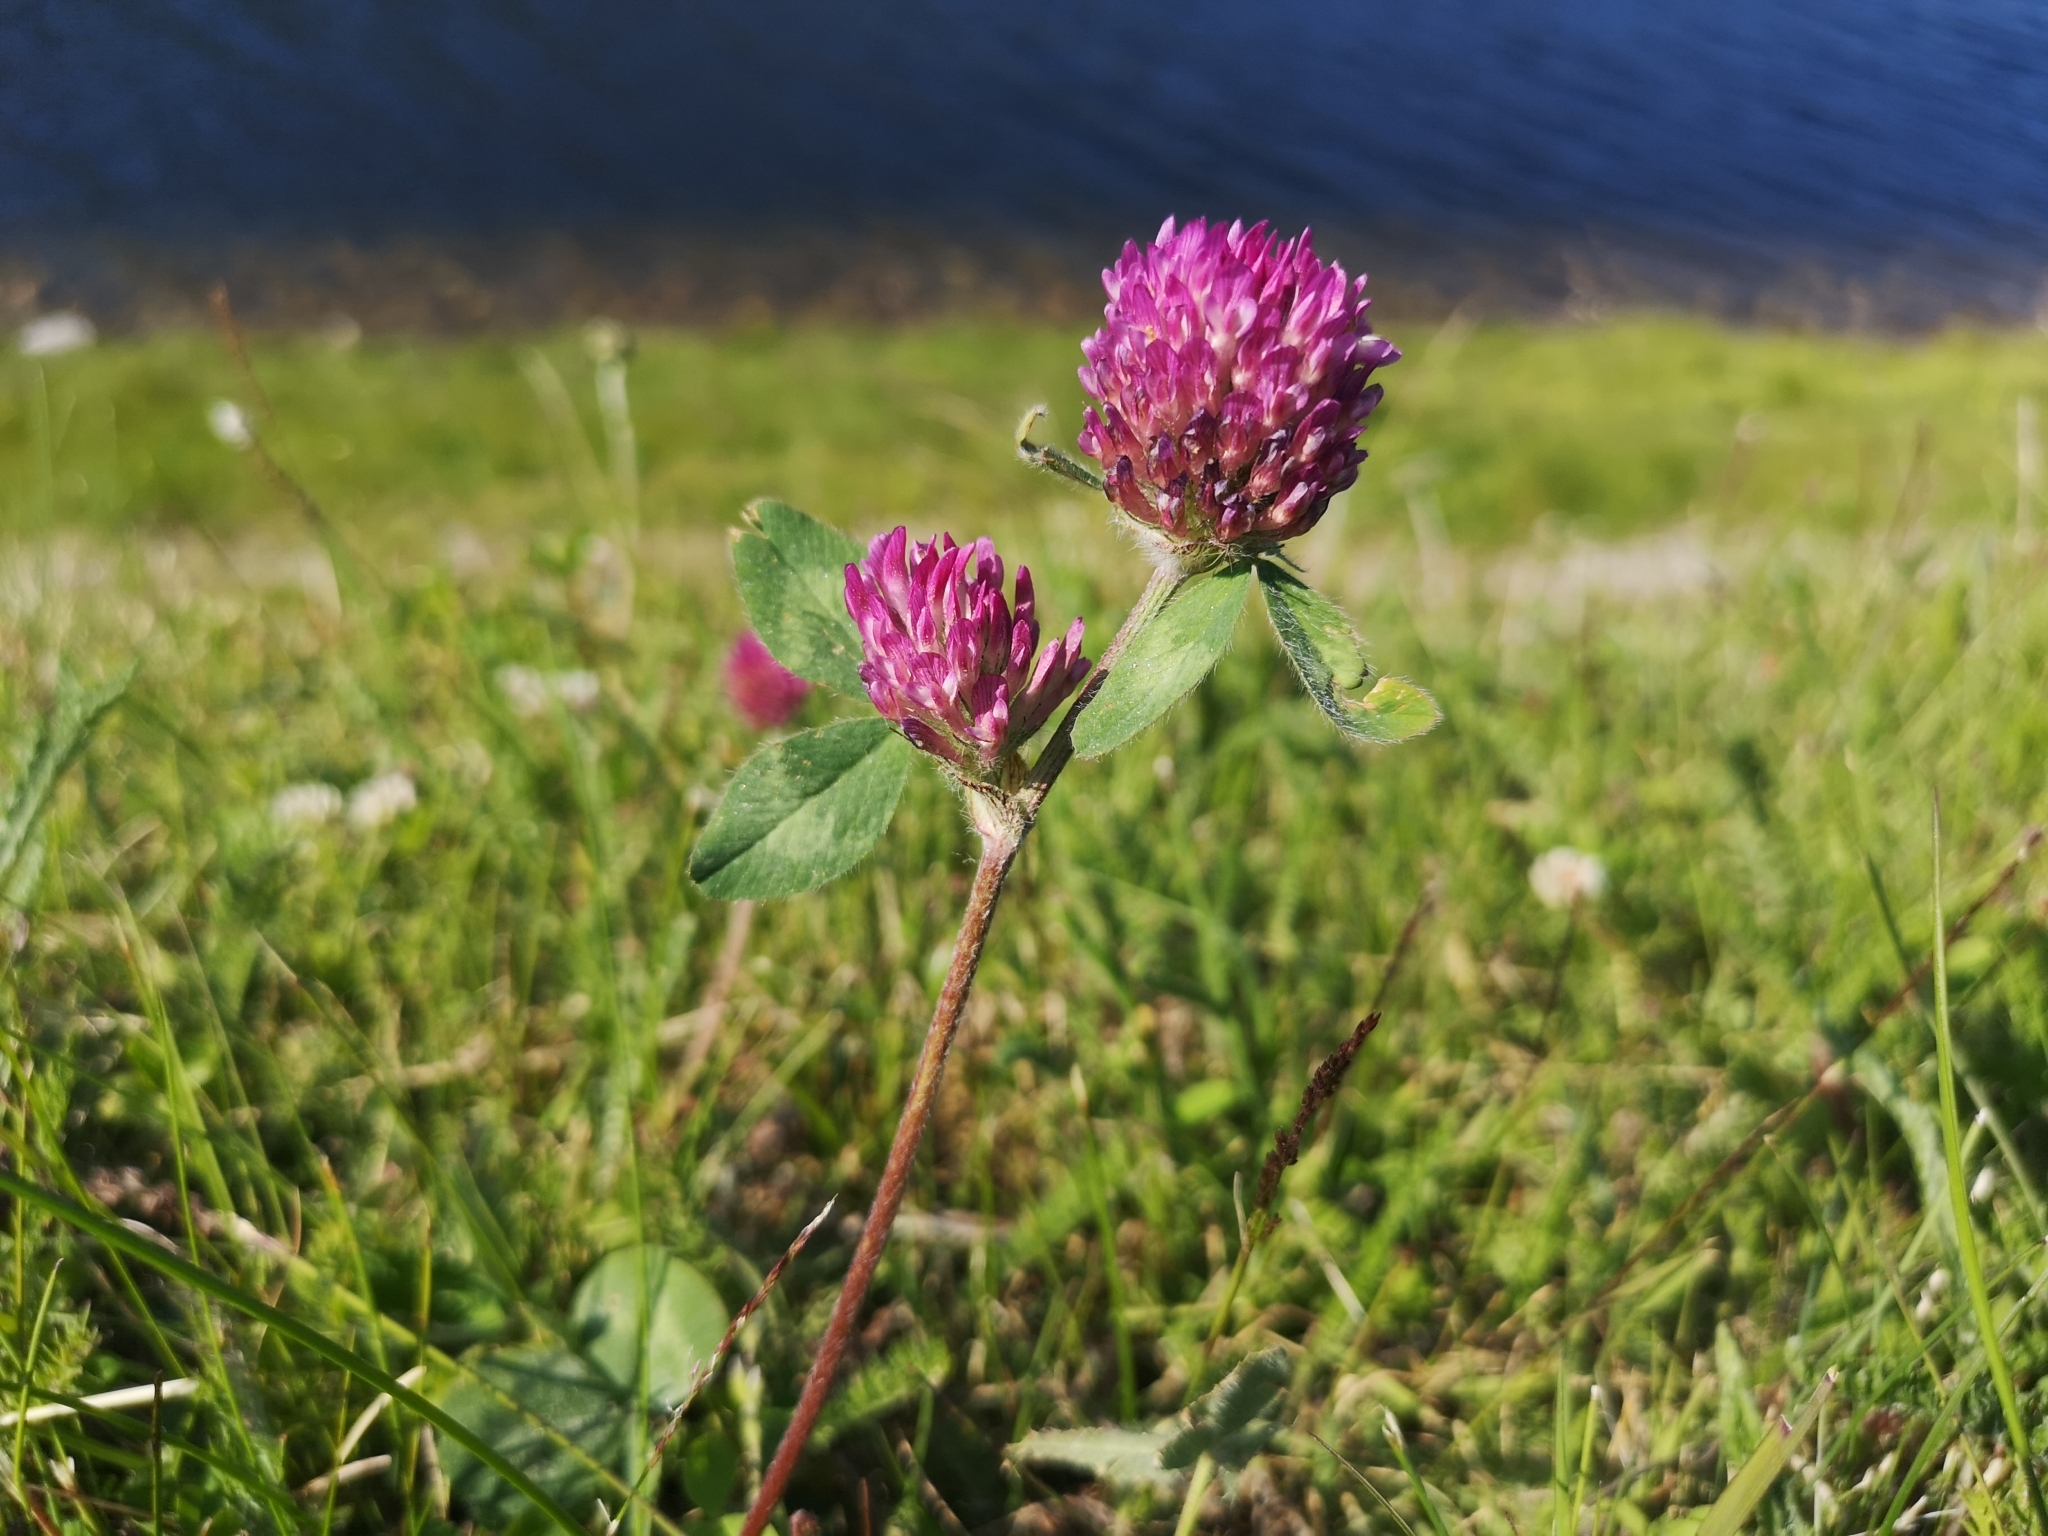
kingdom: Plantae
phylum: Tracheophyta
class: Magnoliopsida
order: Fabales
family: Fabaceae
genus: Trifolium
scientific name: Trifolium pratense
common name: Red clover
